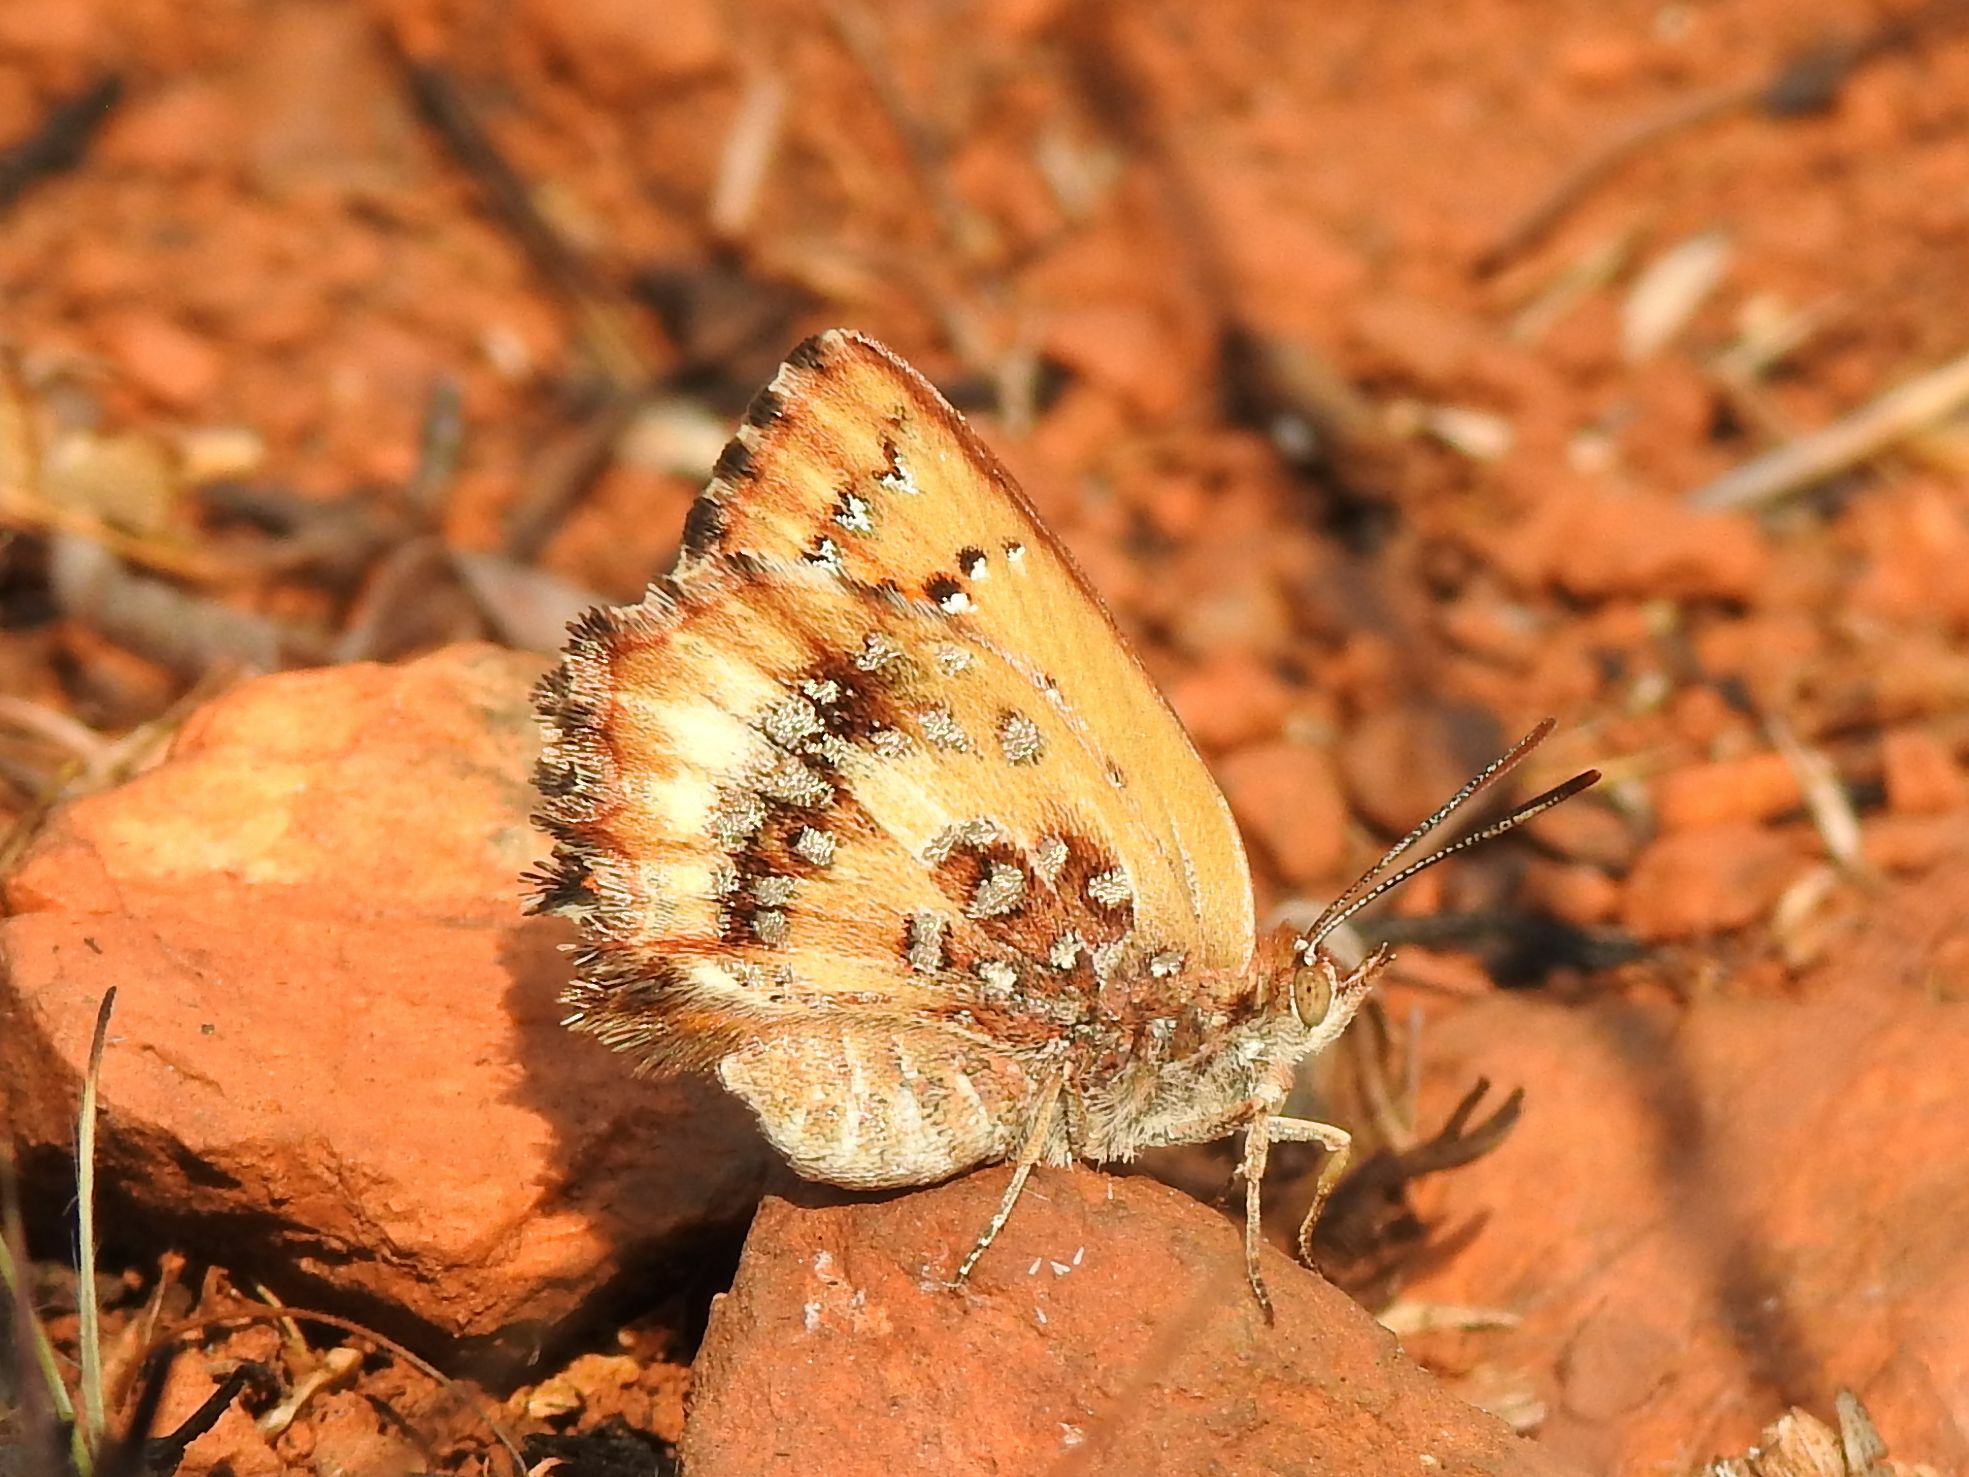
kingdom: Animalia
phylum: Arthropoda
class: Insecta
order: Lepidoptera
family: Lycaenidae
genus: Aloeides
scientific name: Aloeides molomo
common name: Mottled russet
